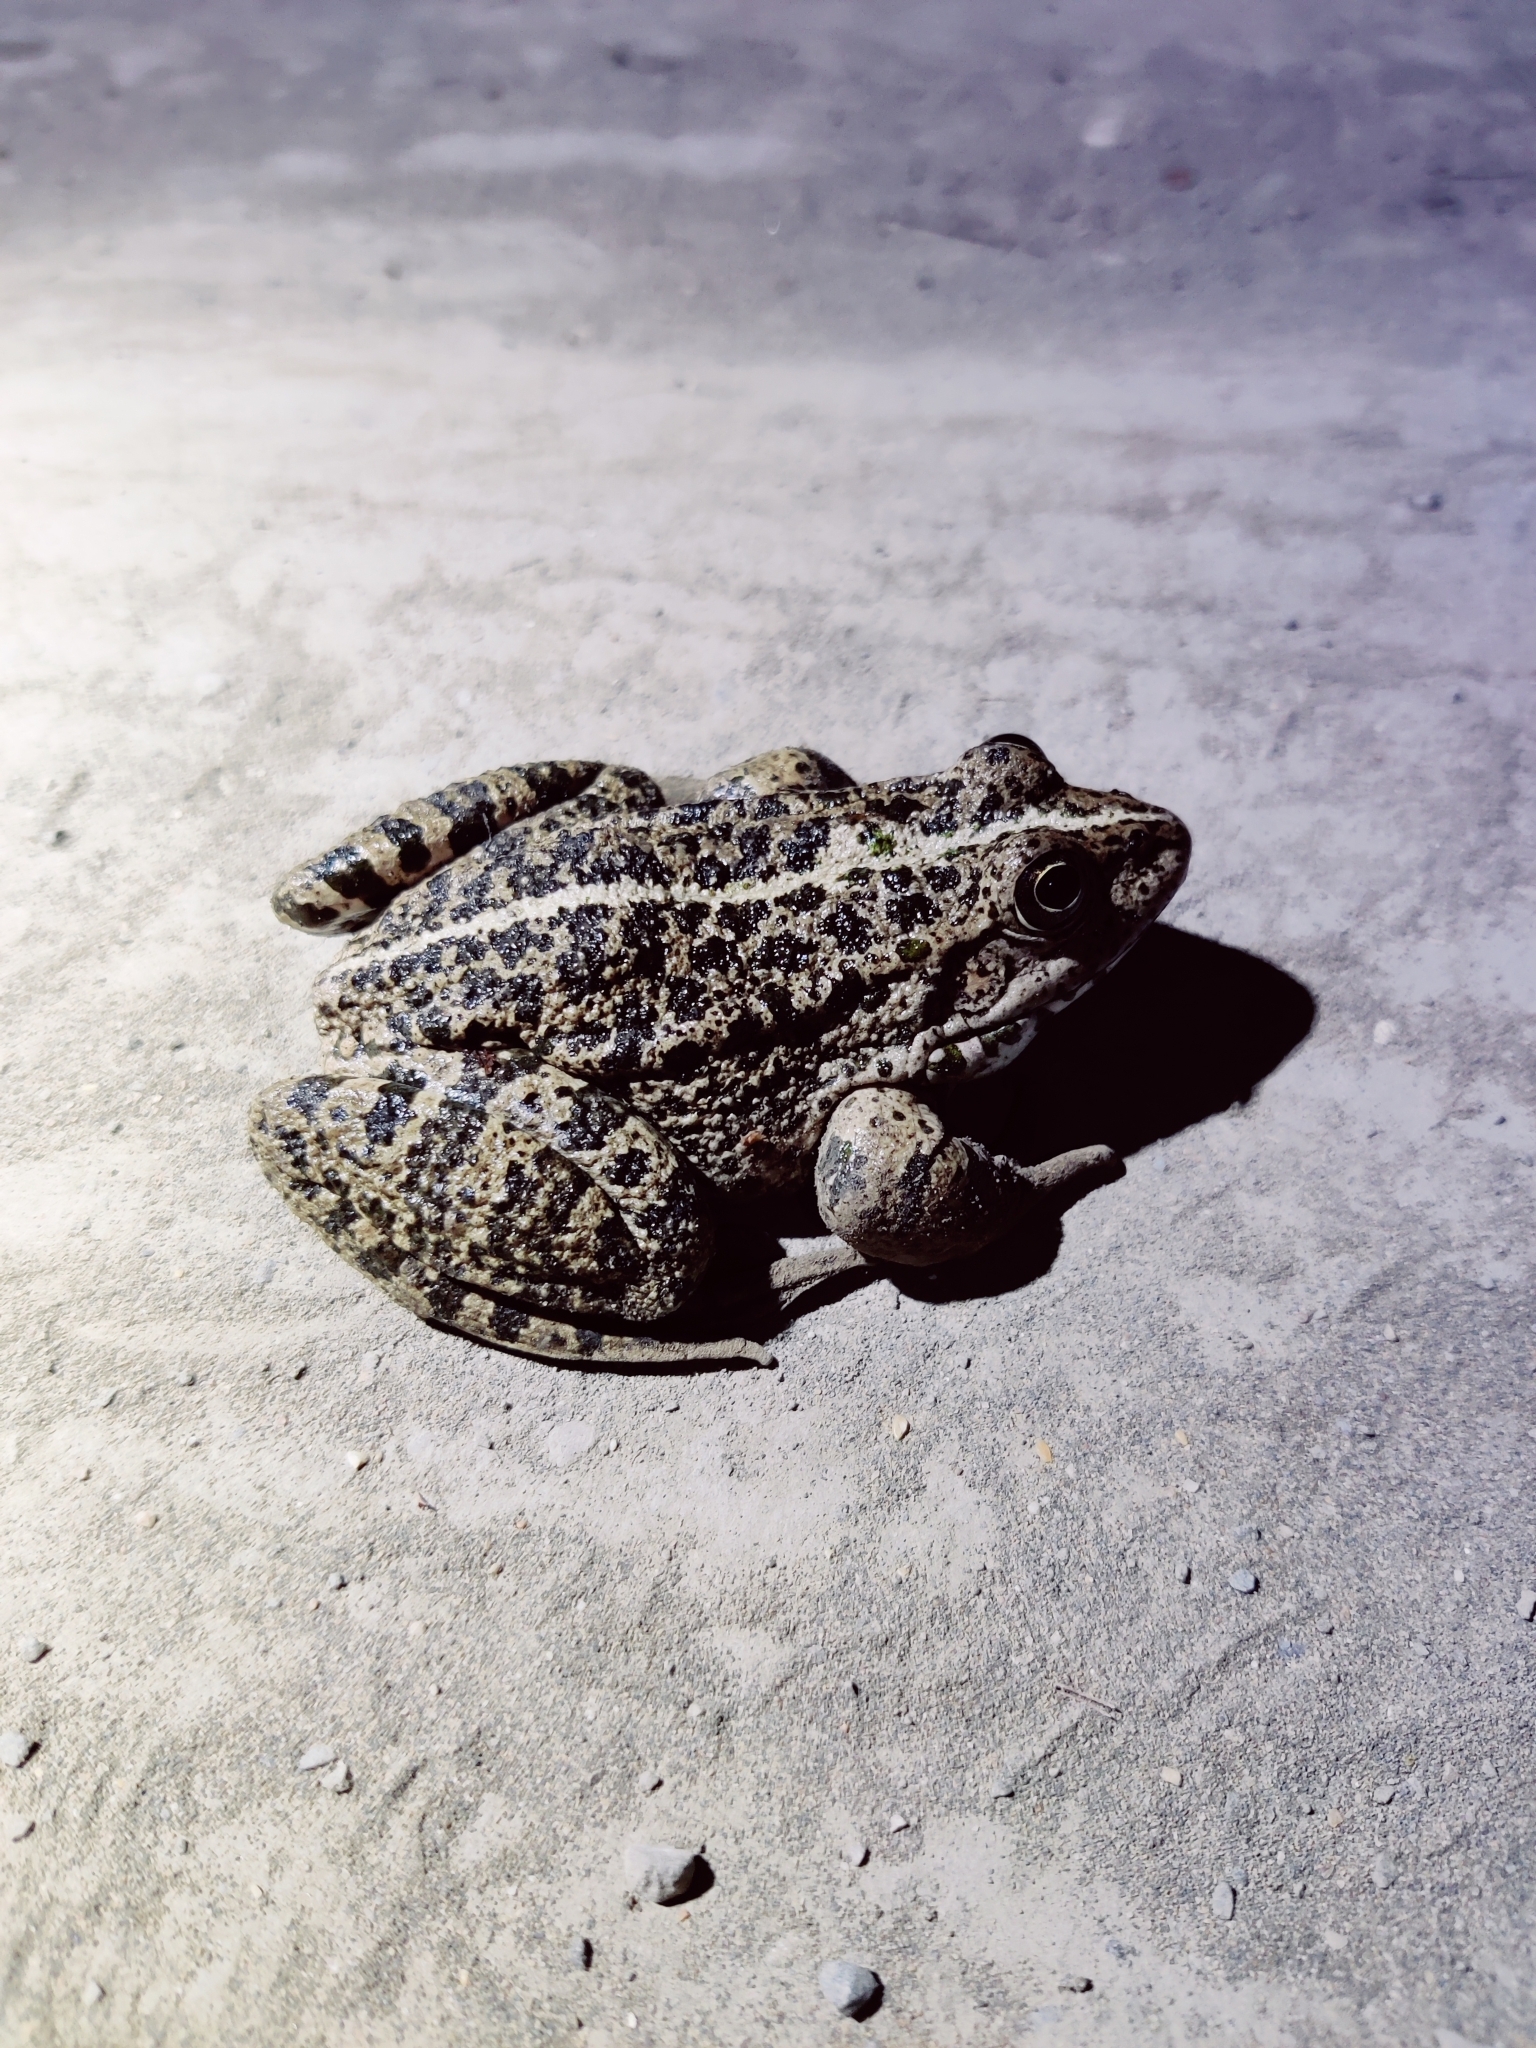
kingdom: Animalia
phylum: Chordata
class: Amphibia
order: Anura
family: Ranidae
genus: Pelophylax
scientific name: Pelophylax ridibundus
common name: Marsh frog
